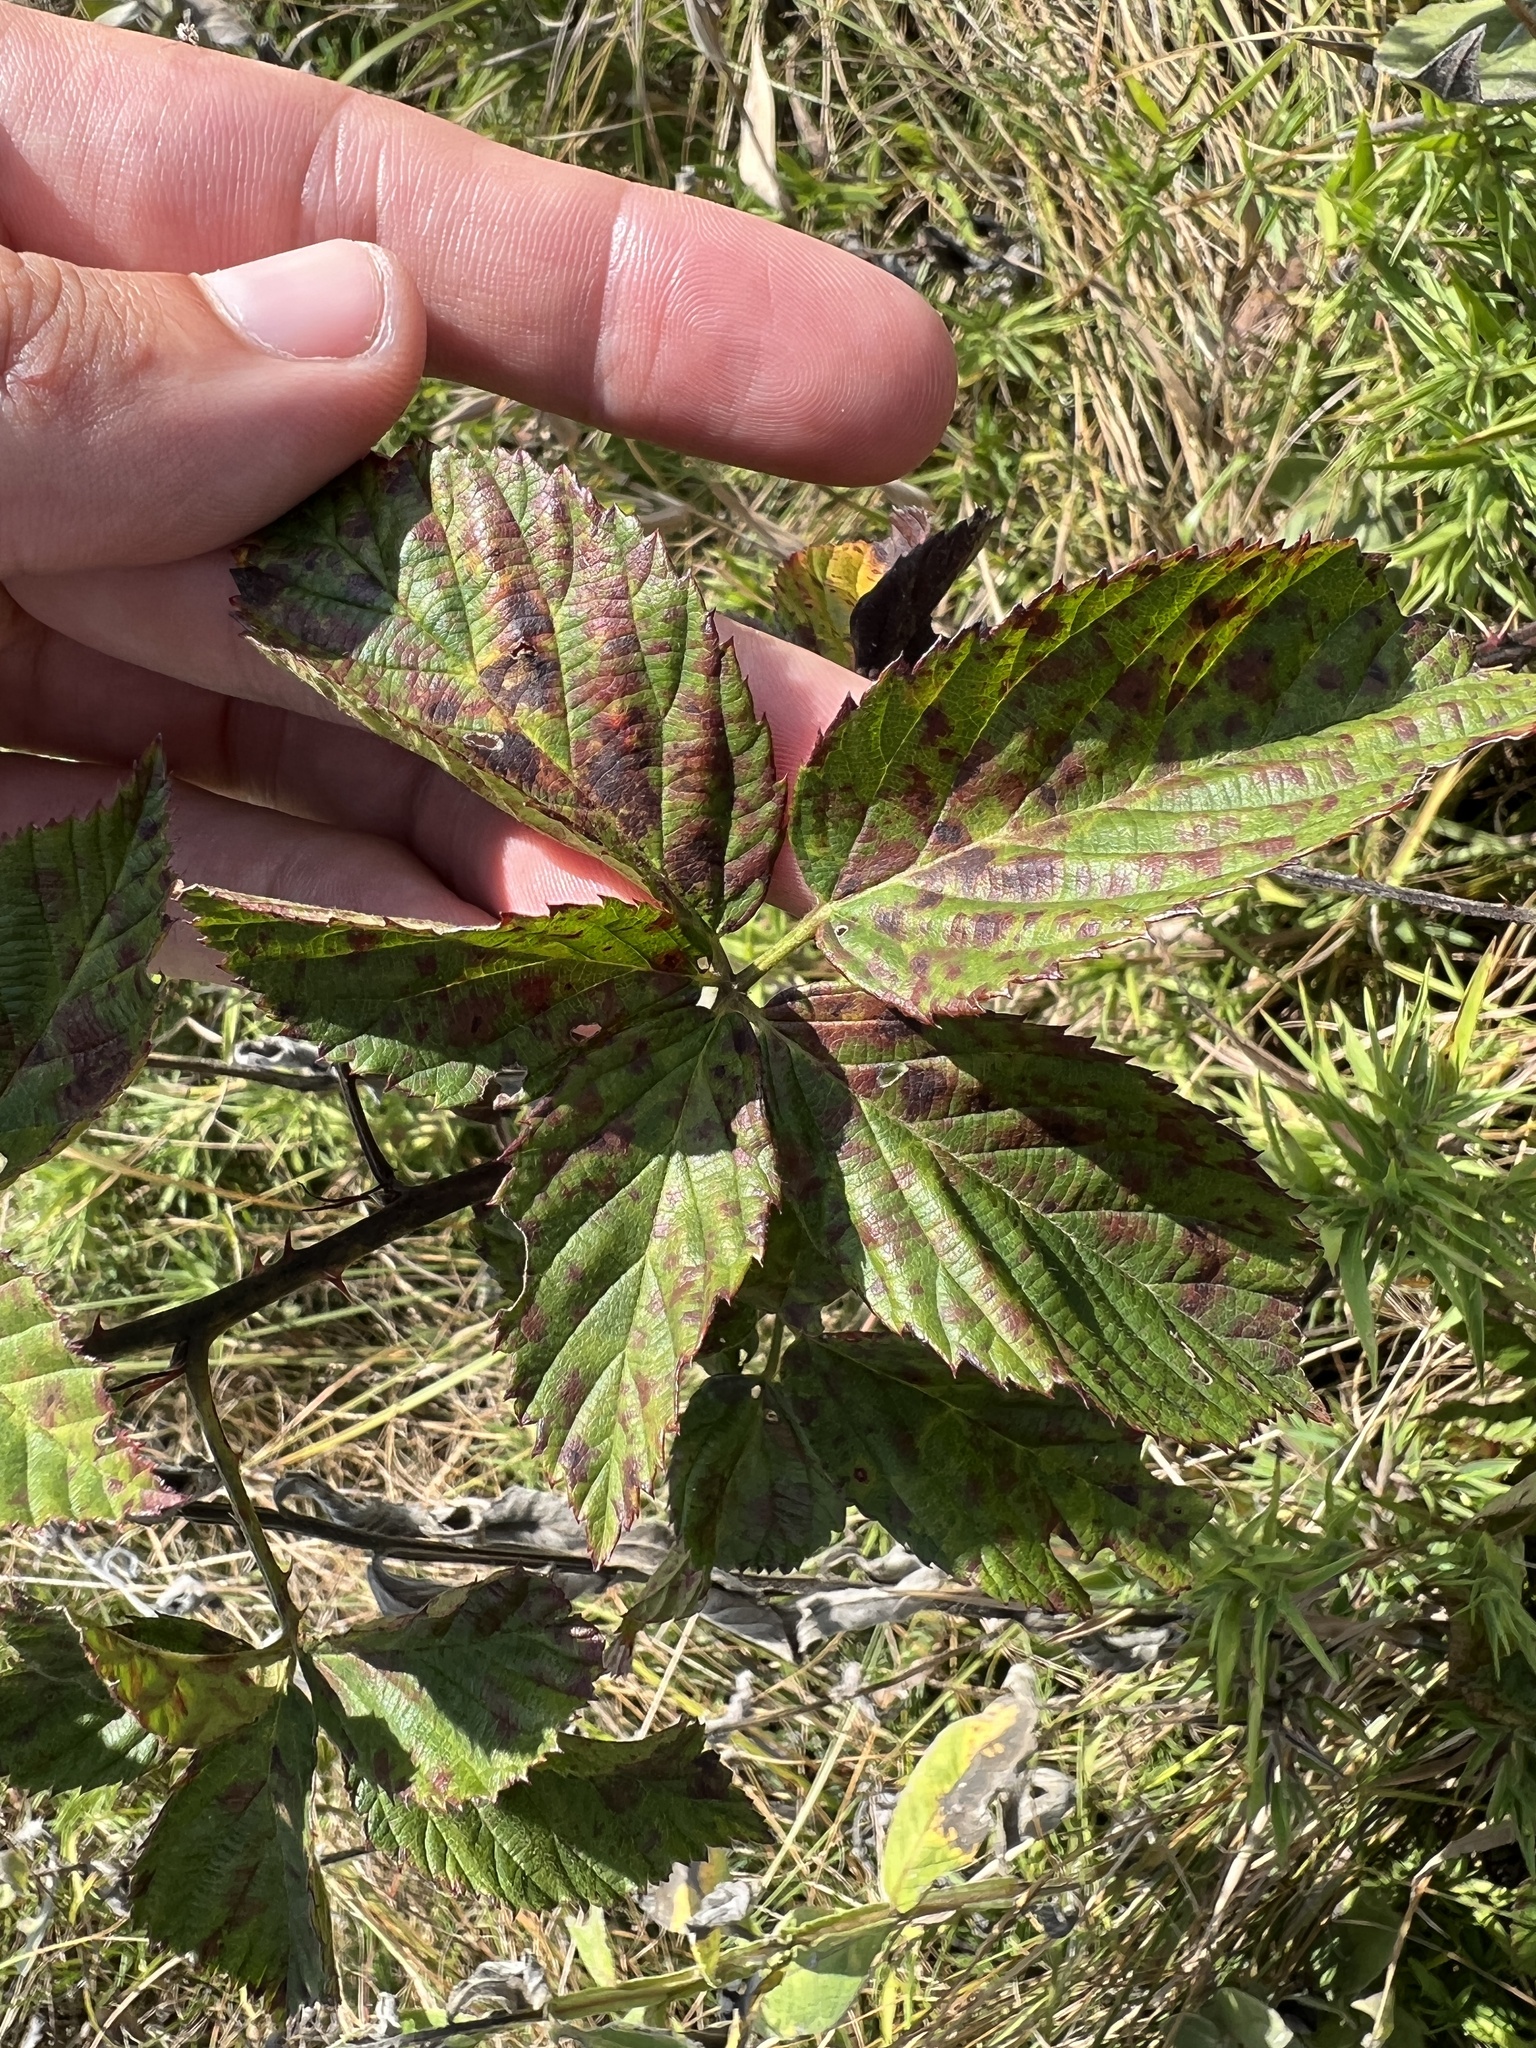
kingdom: Plantae
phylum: Tracheophyta
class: Magnoliopsida
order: Rosales
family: Rosaceae
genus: Rubus
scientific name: Rubus laudatus
